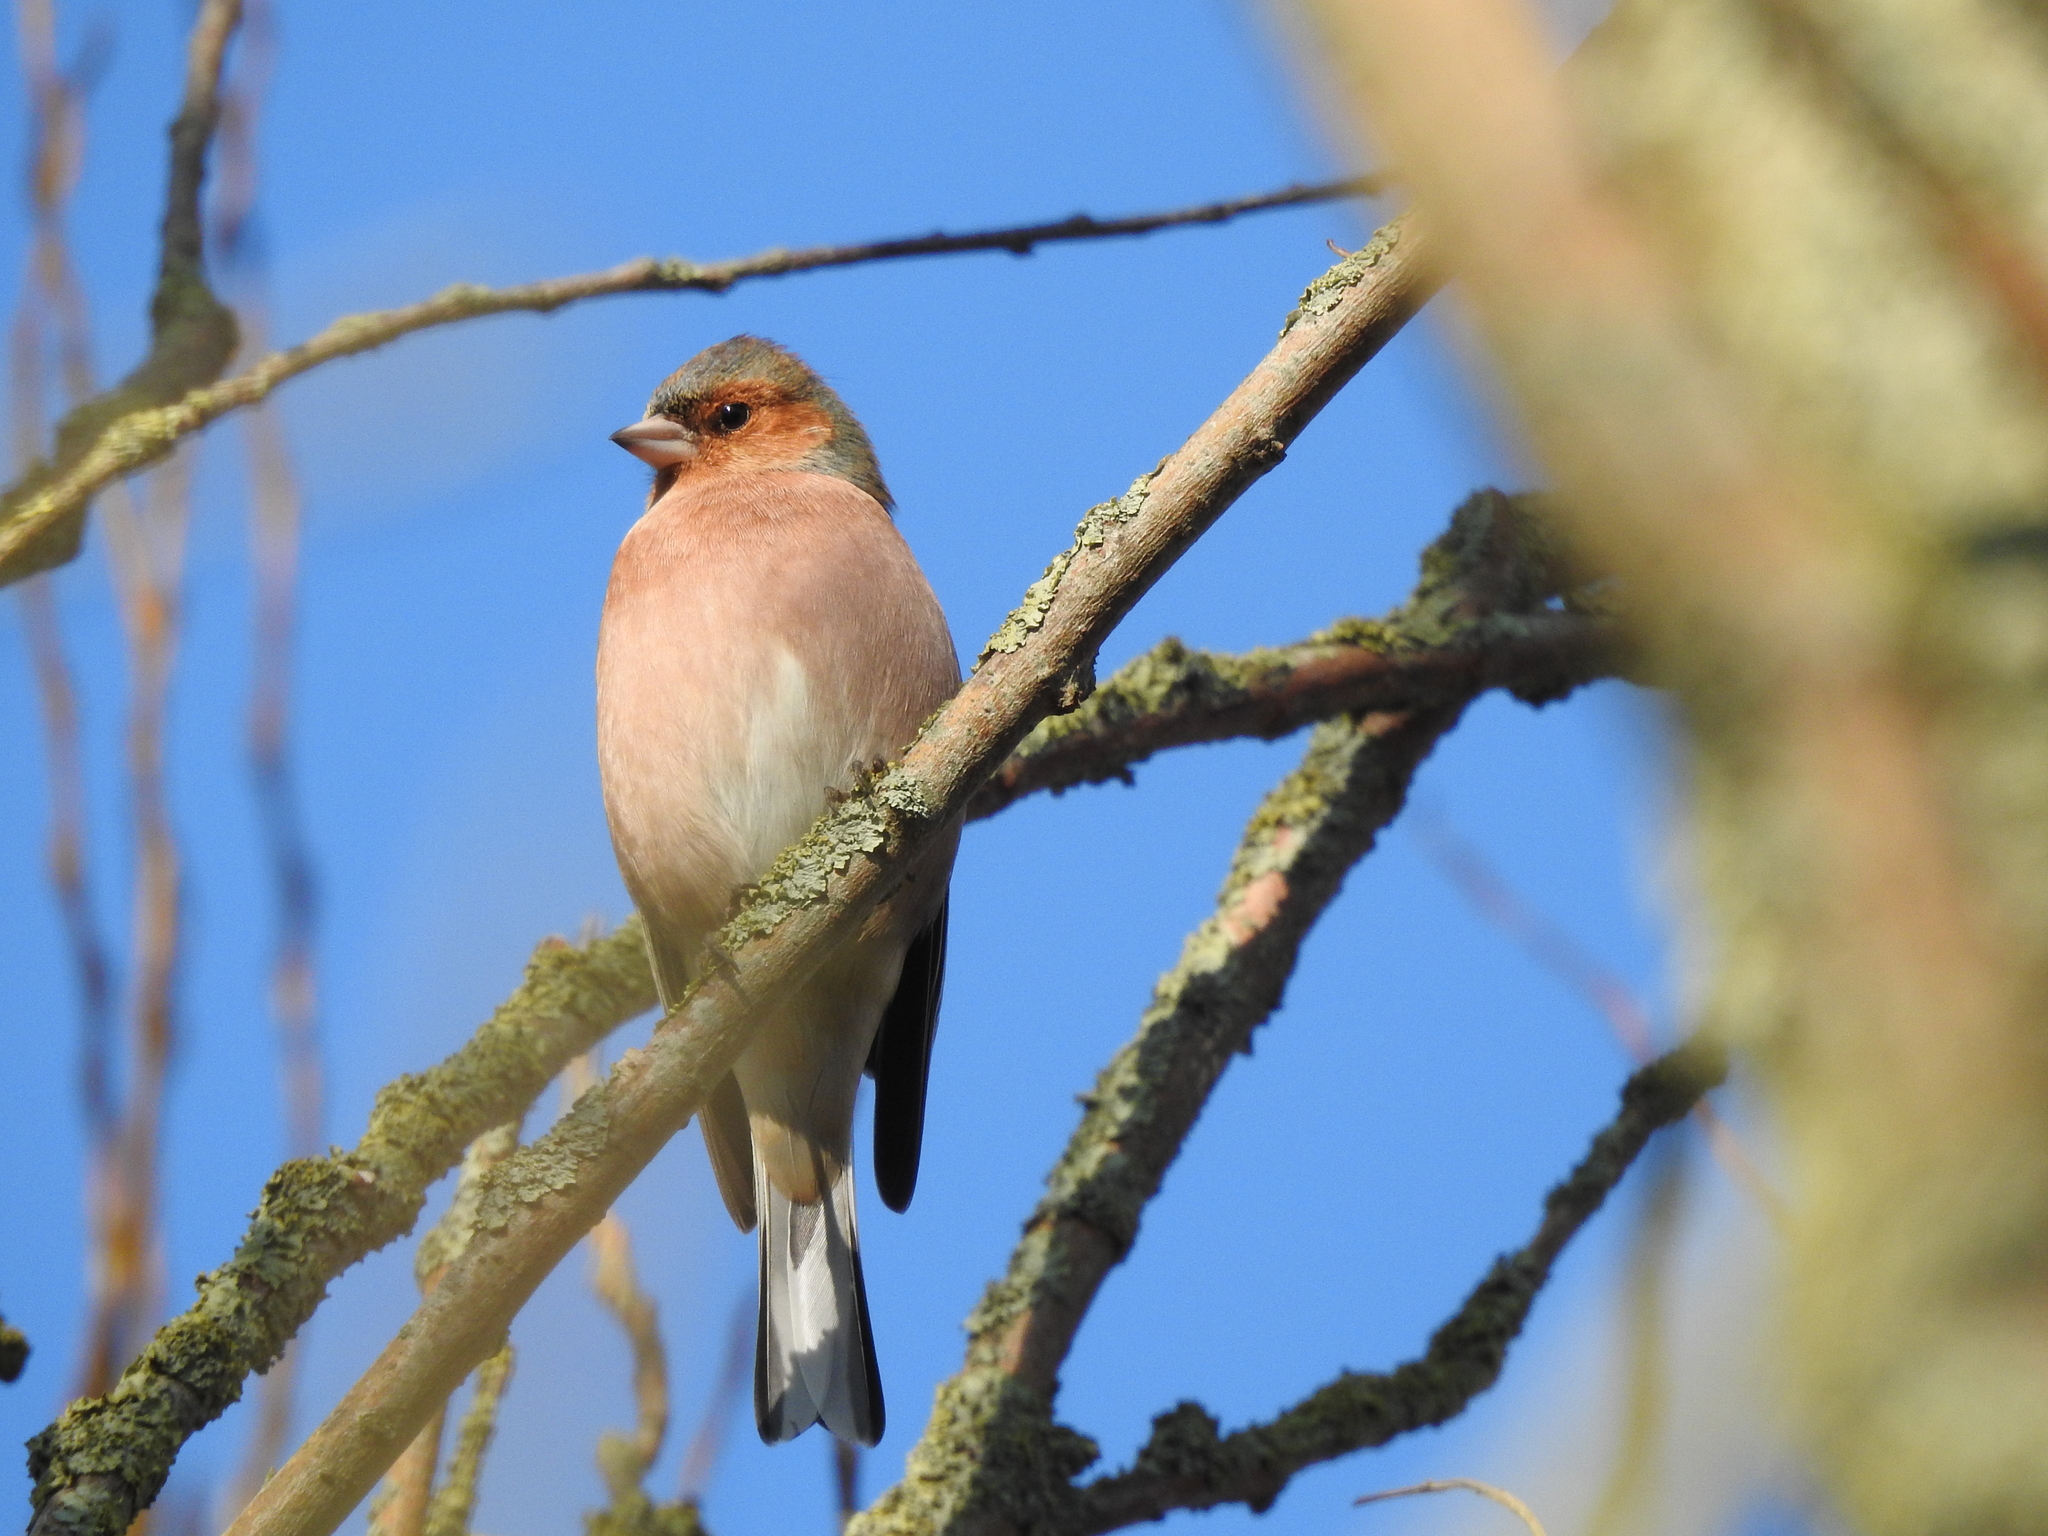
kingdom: Animalia
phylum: Chordata
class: Aves
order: Passeriformes
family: Fringillidae
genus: Fringilla
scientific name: Fringilla coelebs
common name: Common chaffinch
